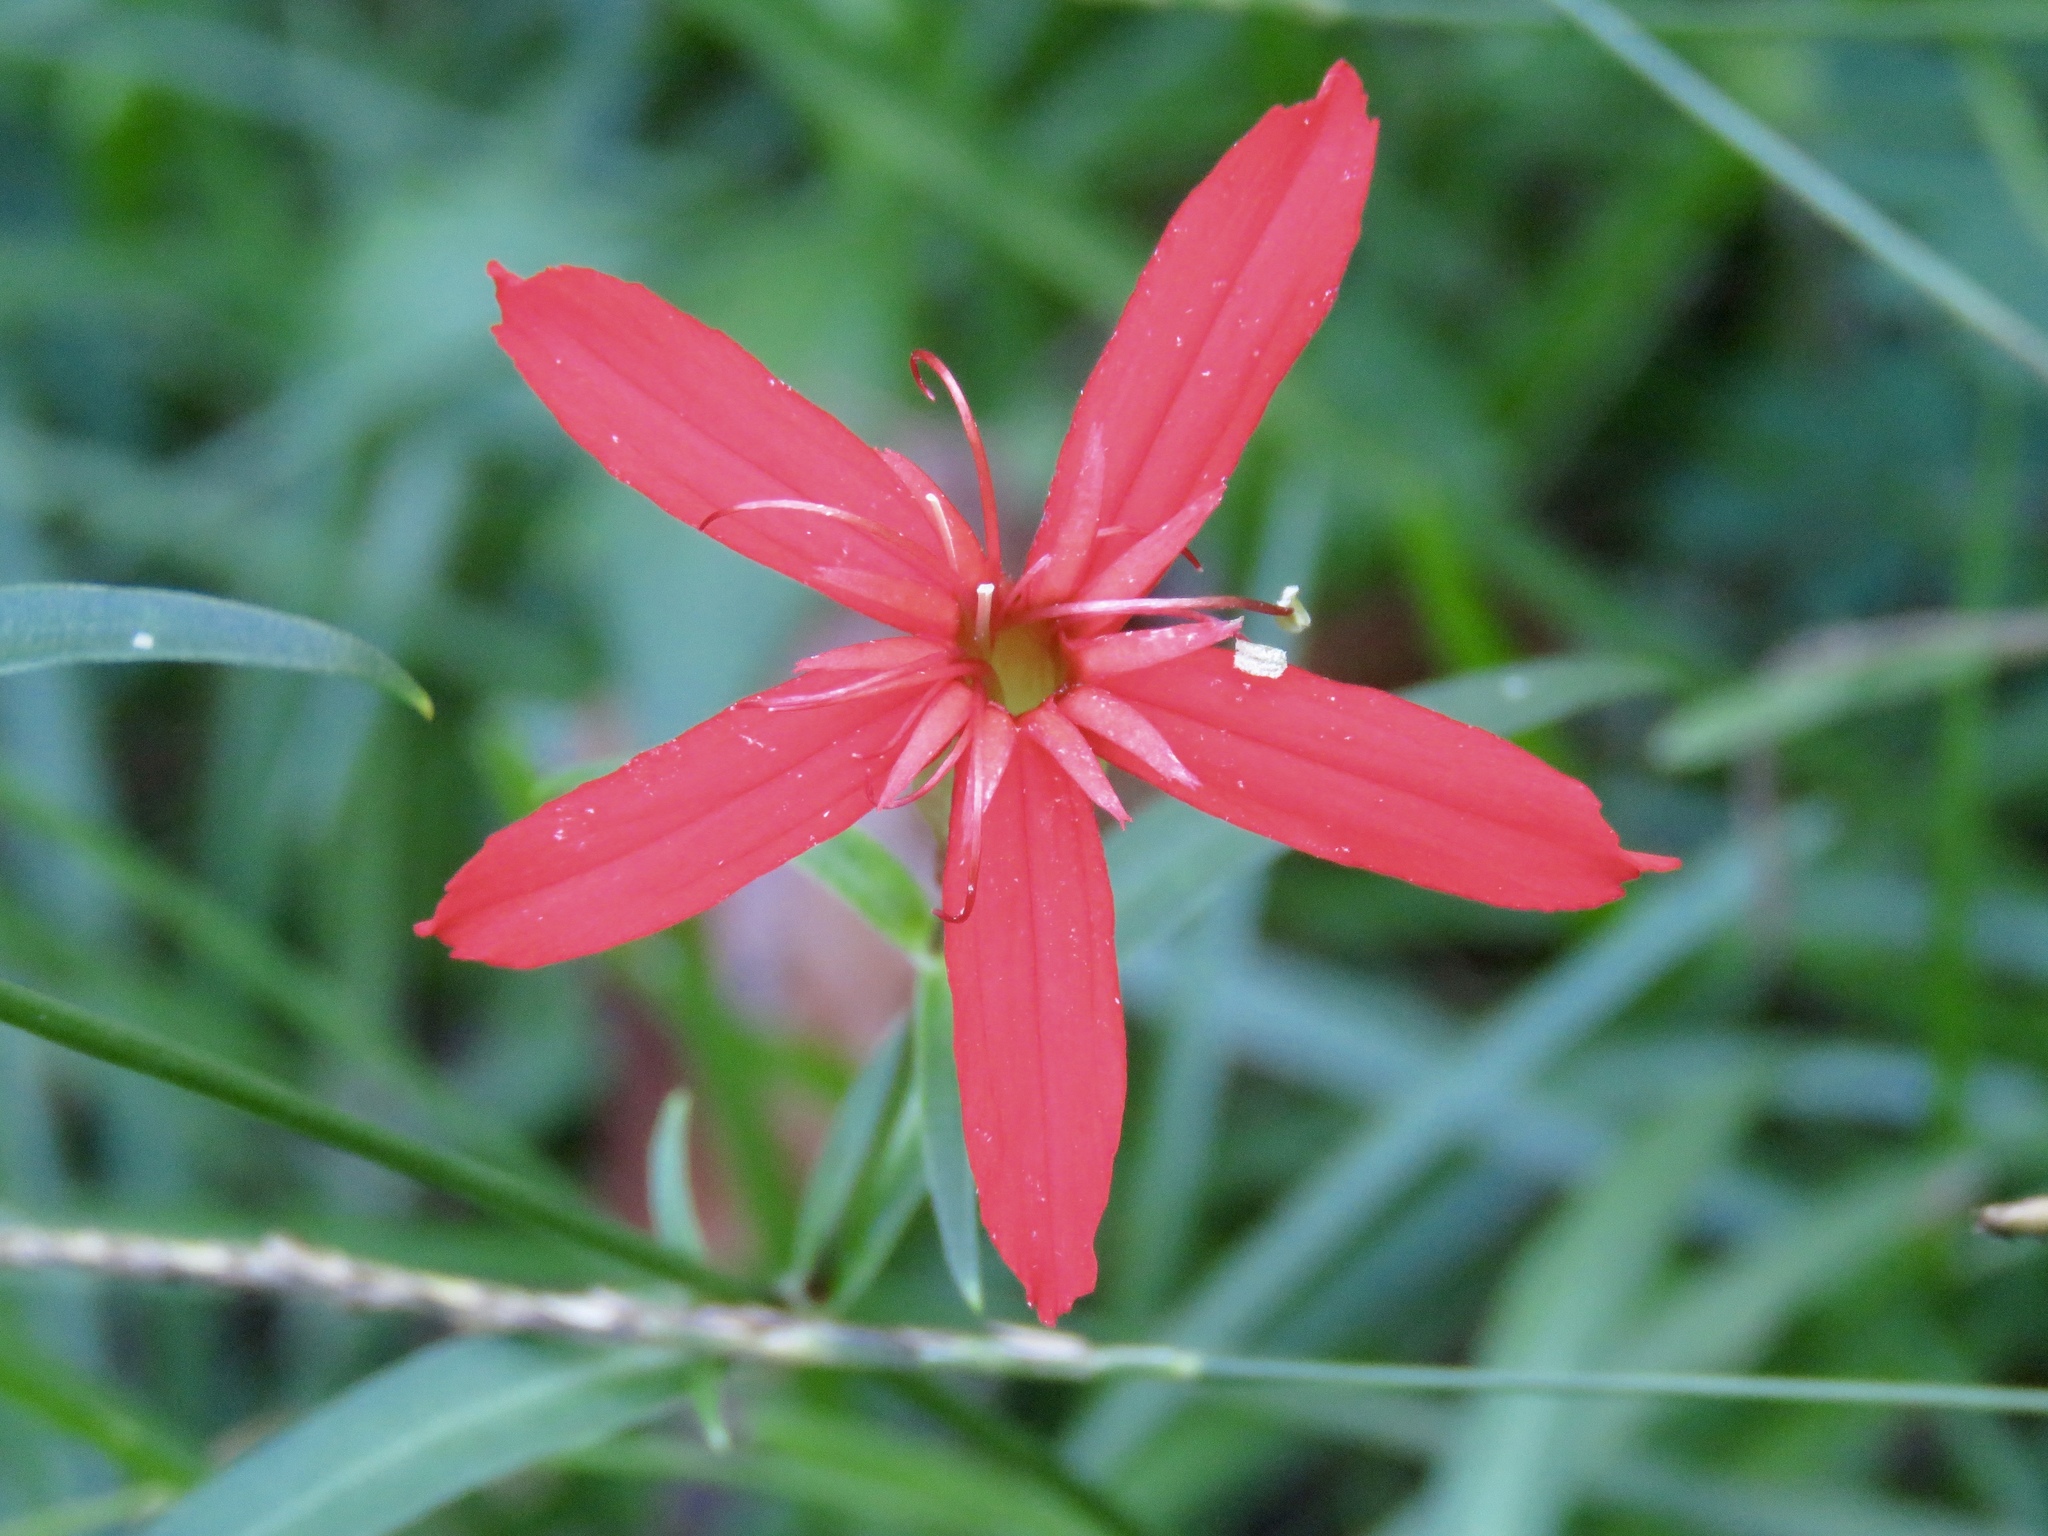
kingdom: Plantae
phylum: Tracheophyta
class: Magnoliopsida
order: Caryophyllales
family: Caryophyllaceae
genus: Silene
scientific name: Silene subciliata
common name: Prairie fire-pink
